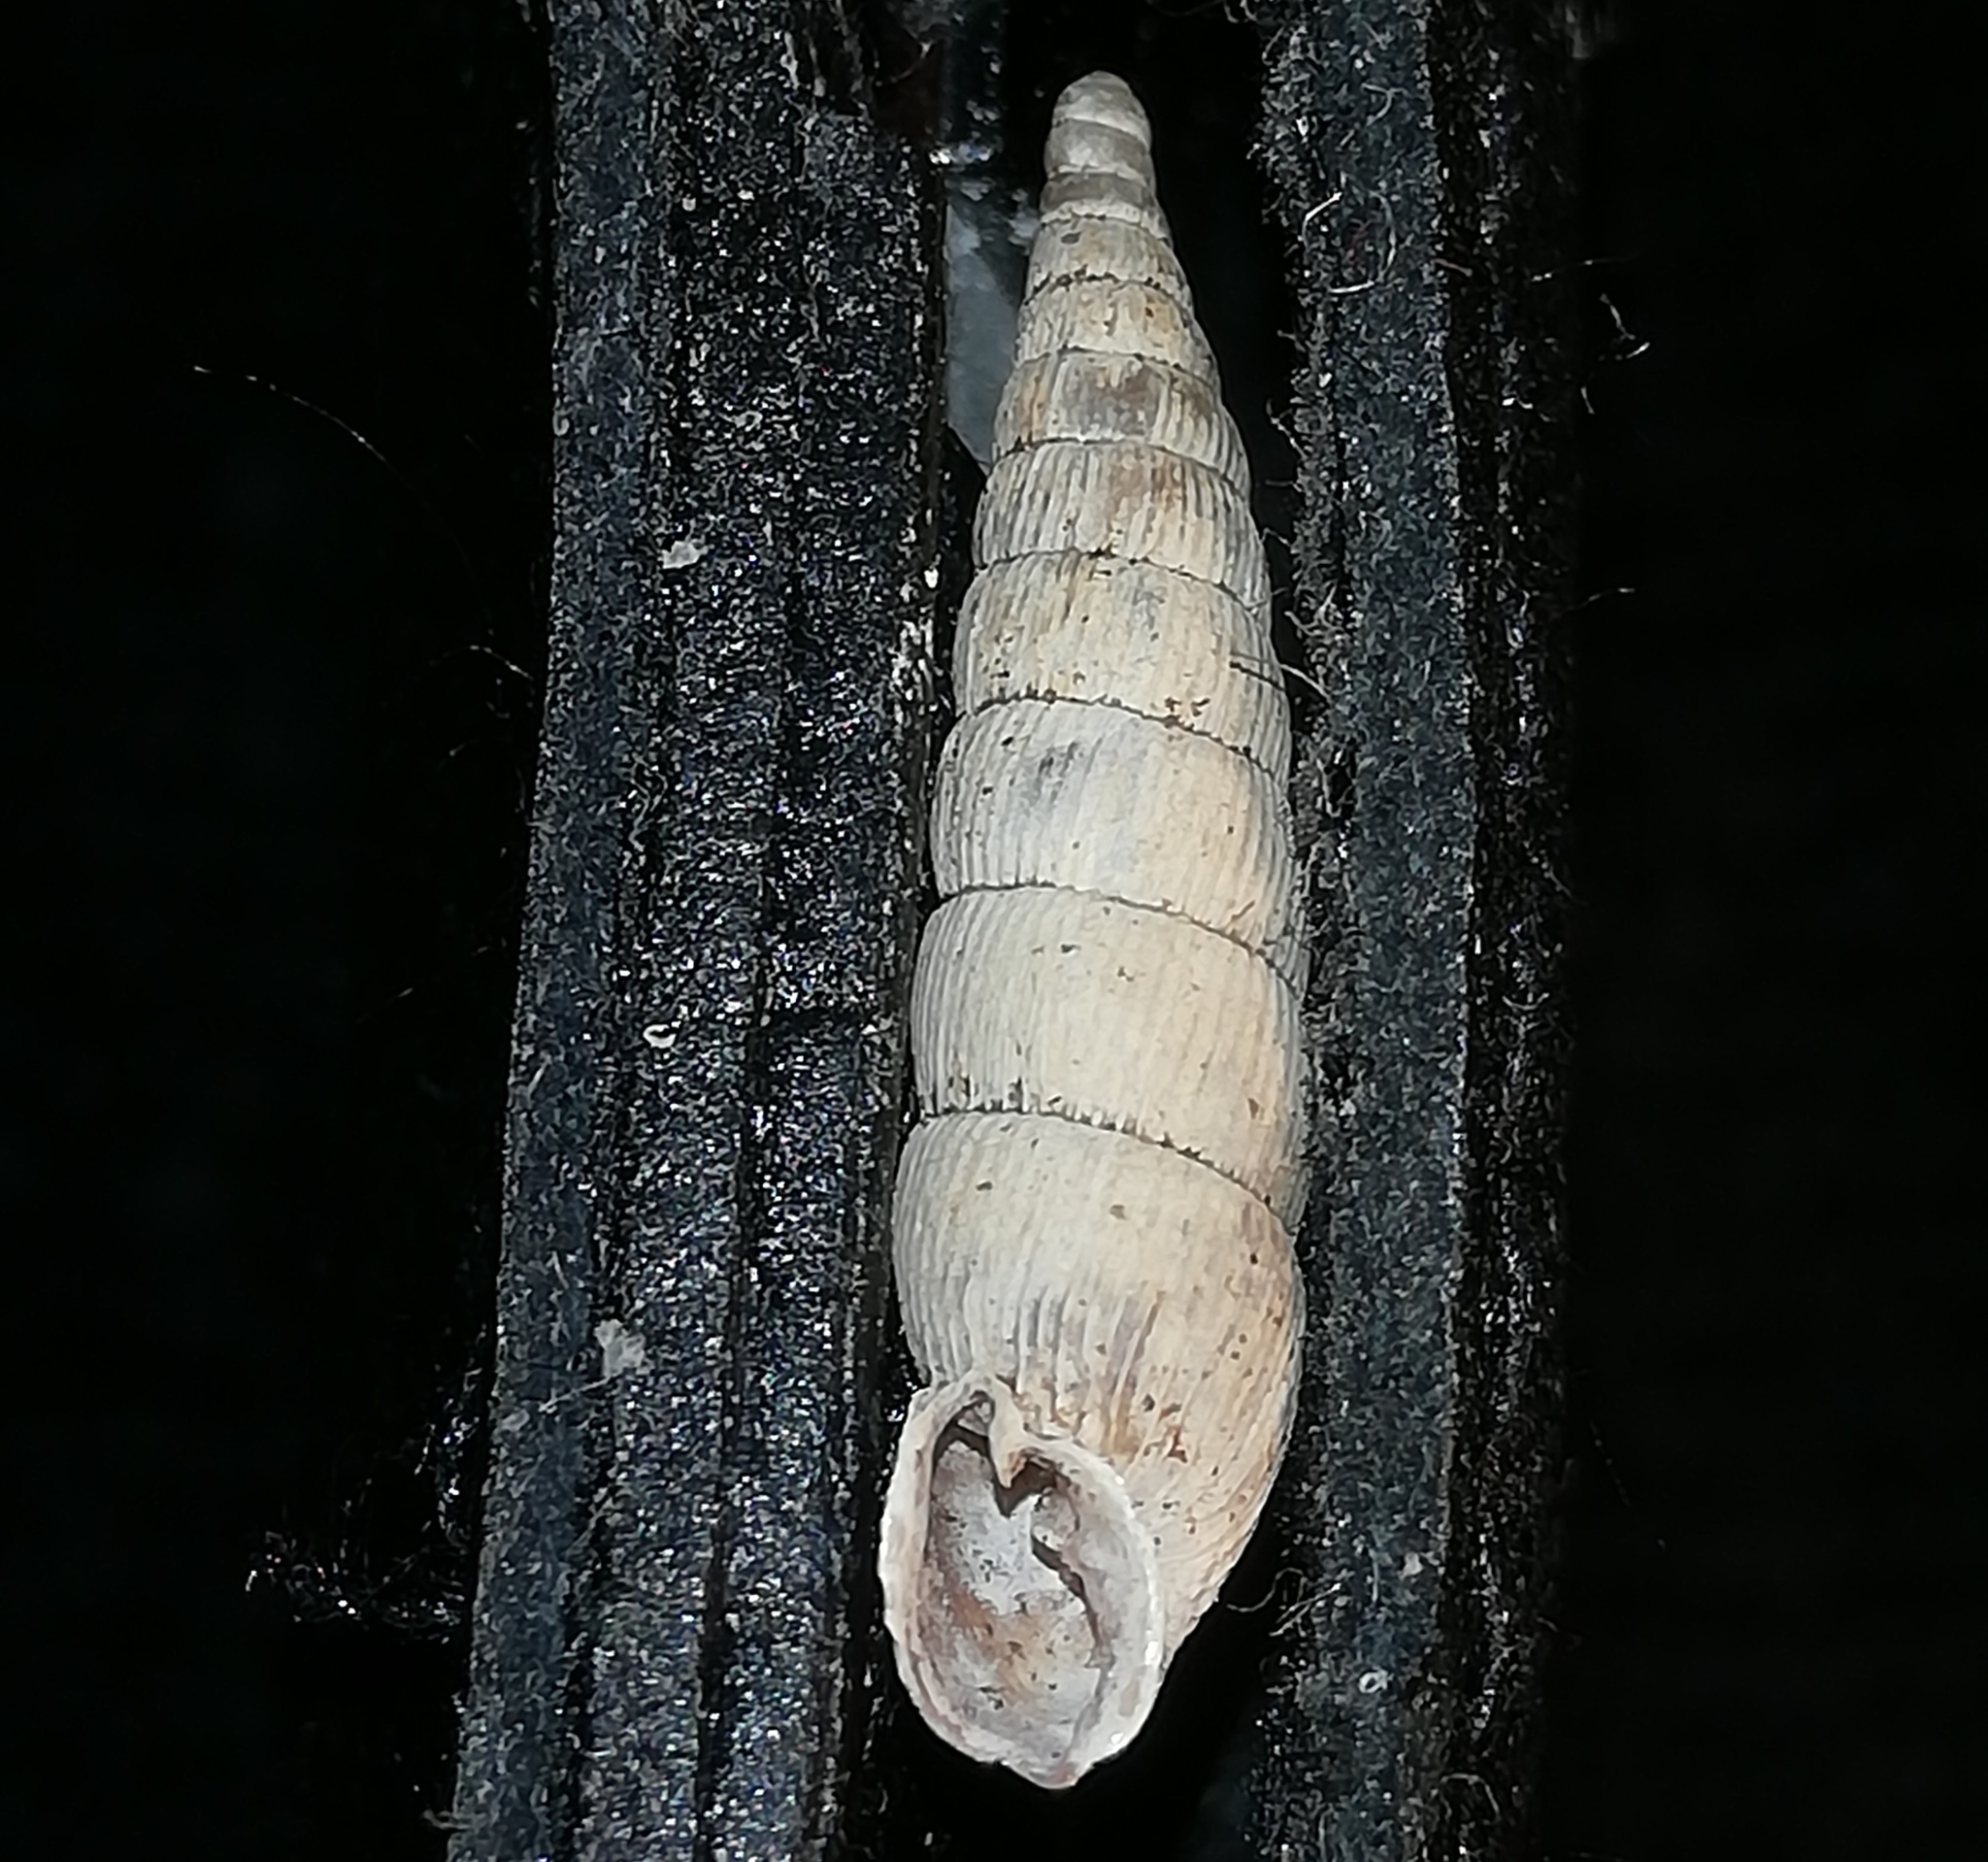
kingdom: Animalia
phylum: Mollusca
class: Gastropoda
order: Stylommatophora
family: Clausiliidae
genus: Alinda
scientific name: Alinda biplicata
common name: Thames door snail
